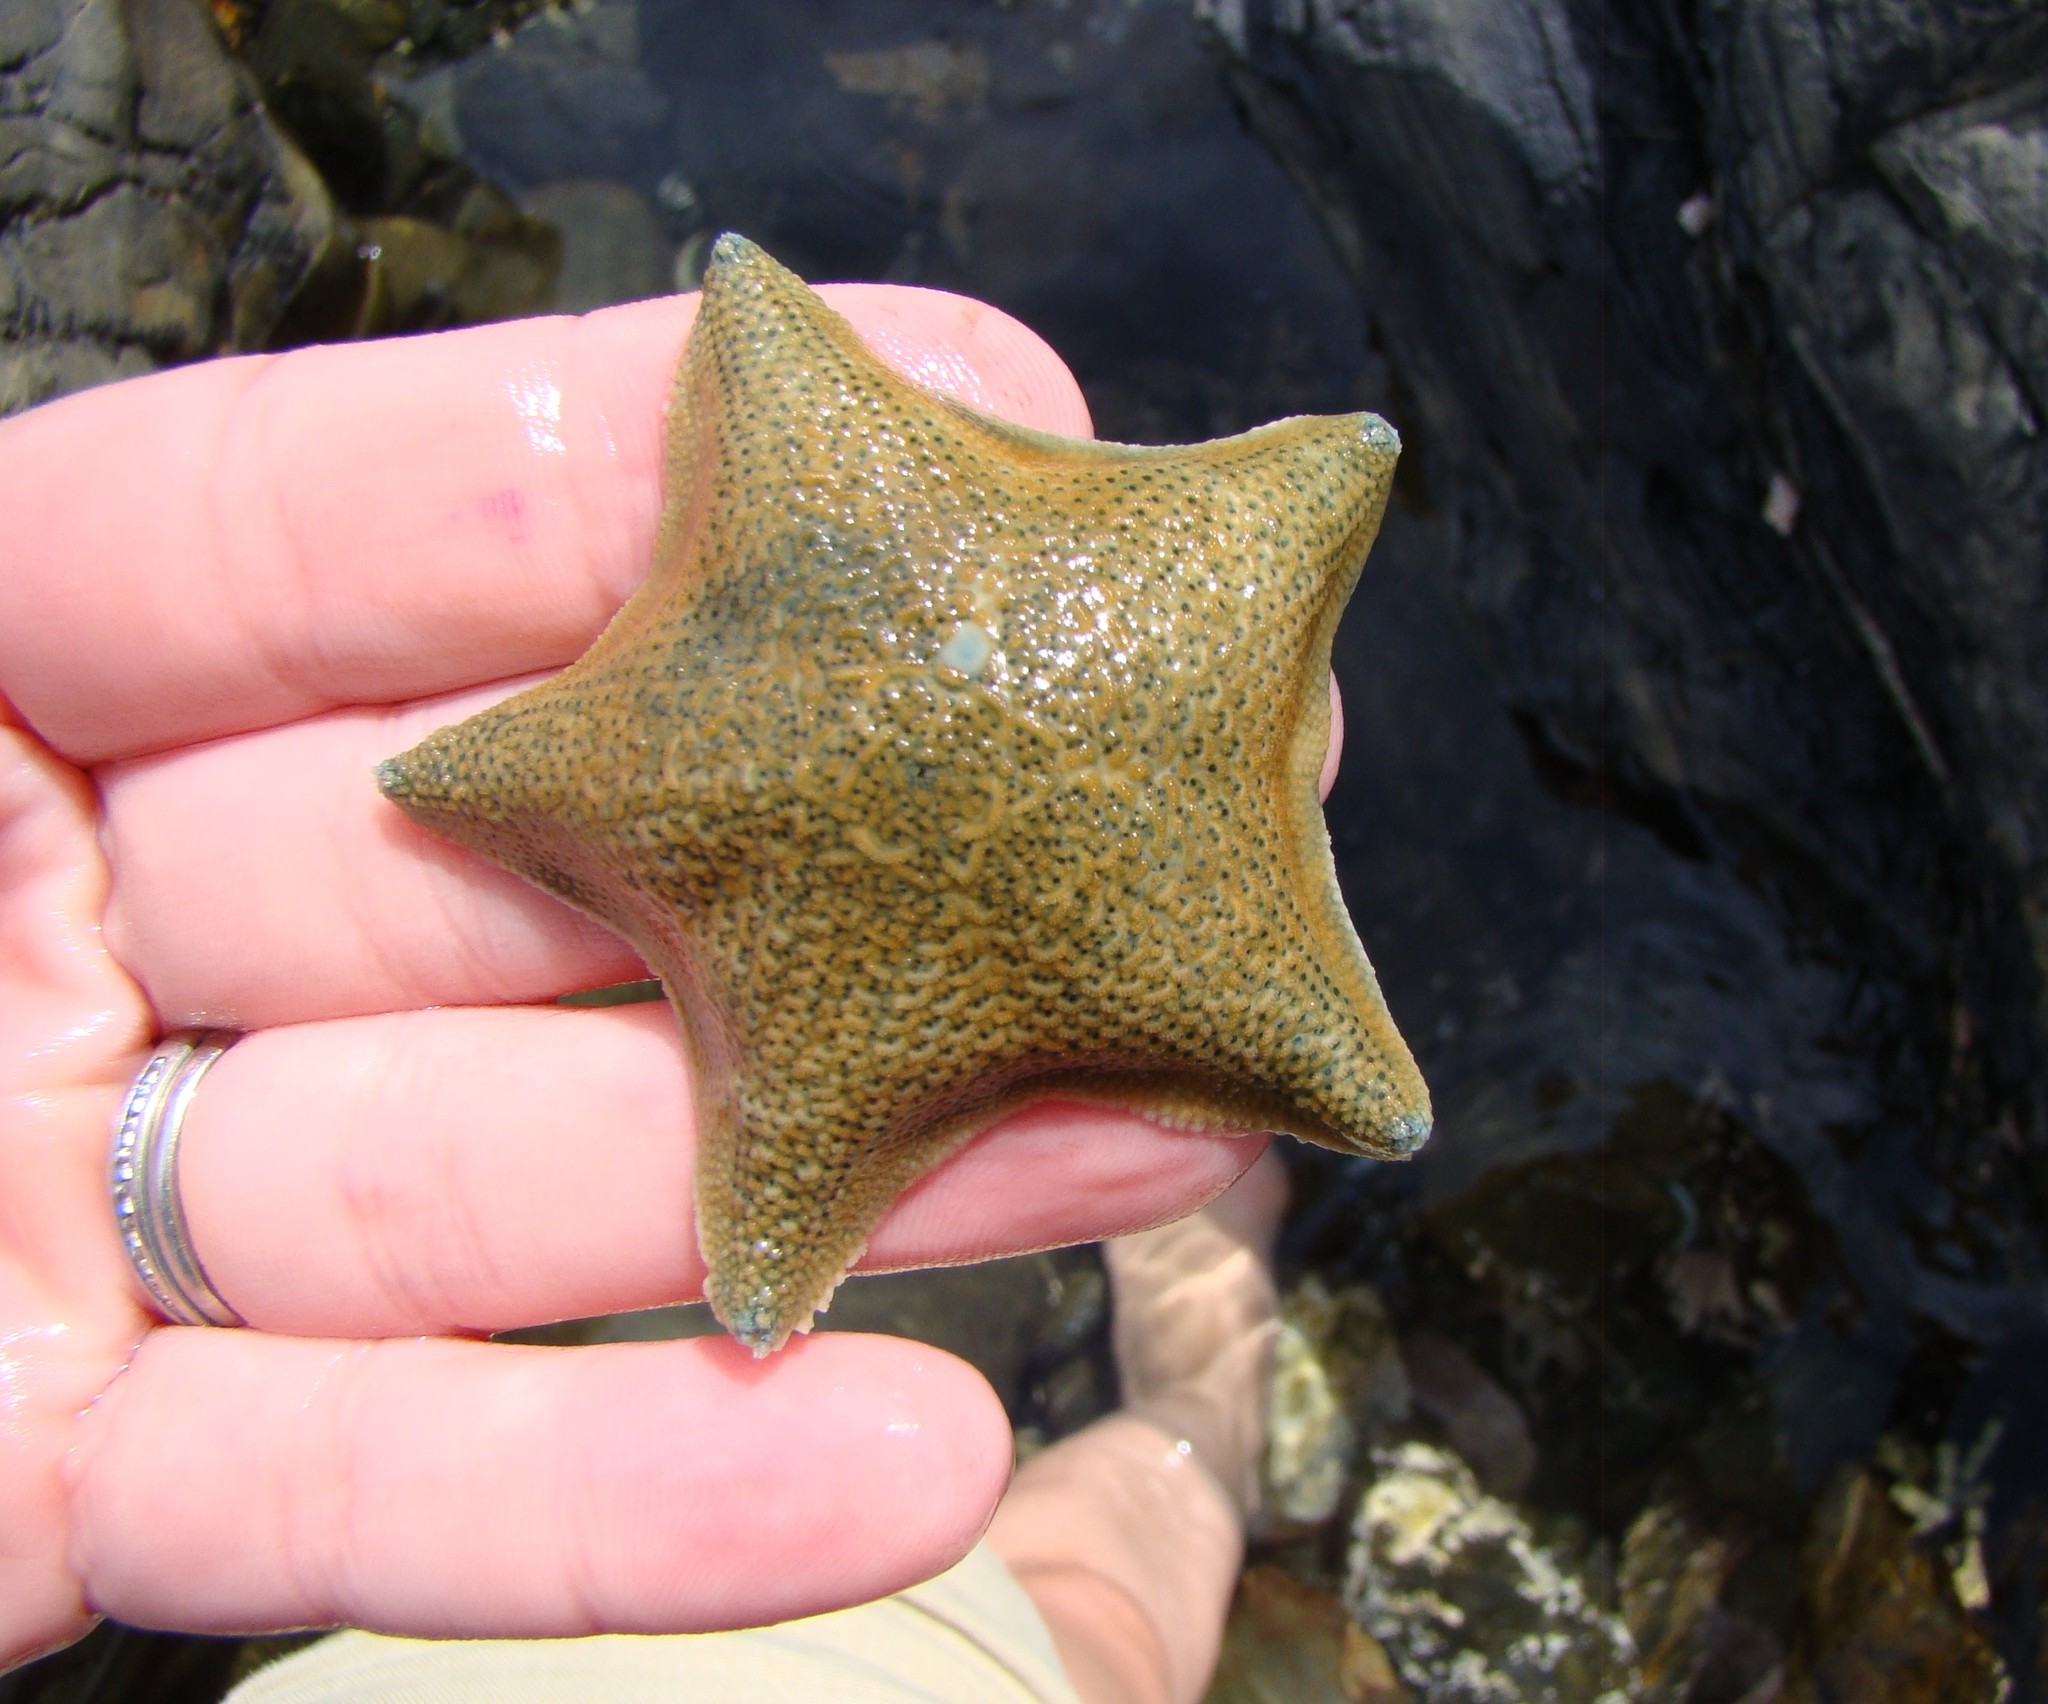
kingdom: Animalia
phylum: Echinodermata
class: Asteroidea
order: Valvatida
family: Asterinidae
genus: Patiriella
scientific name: Patiriella regularis
